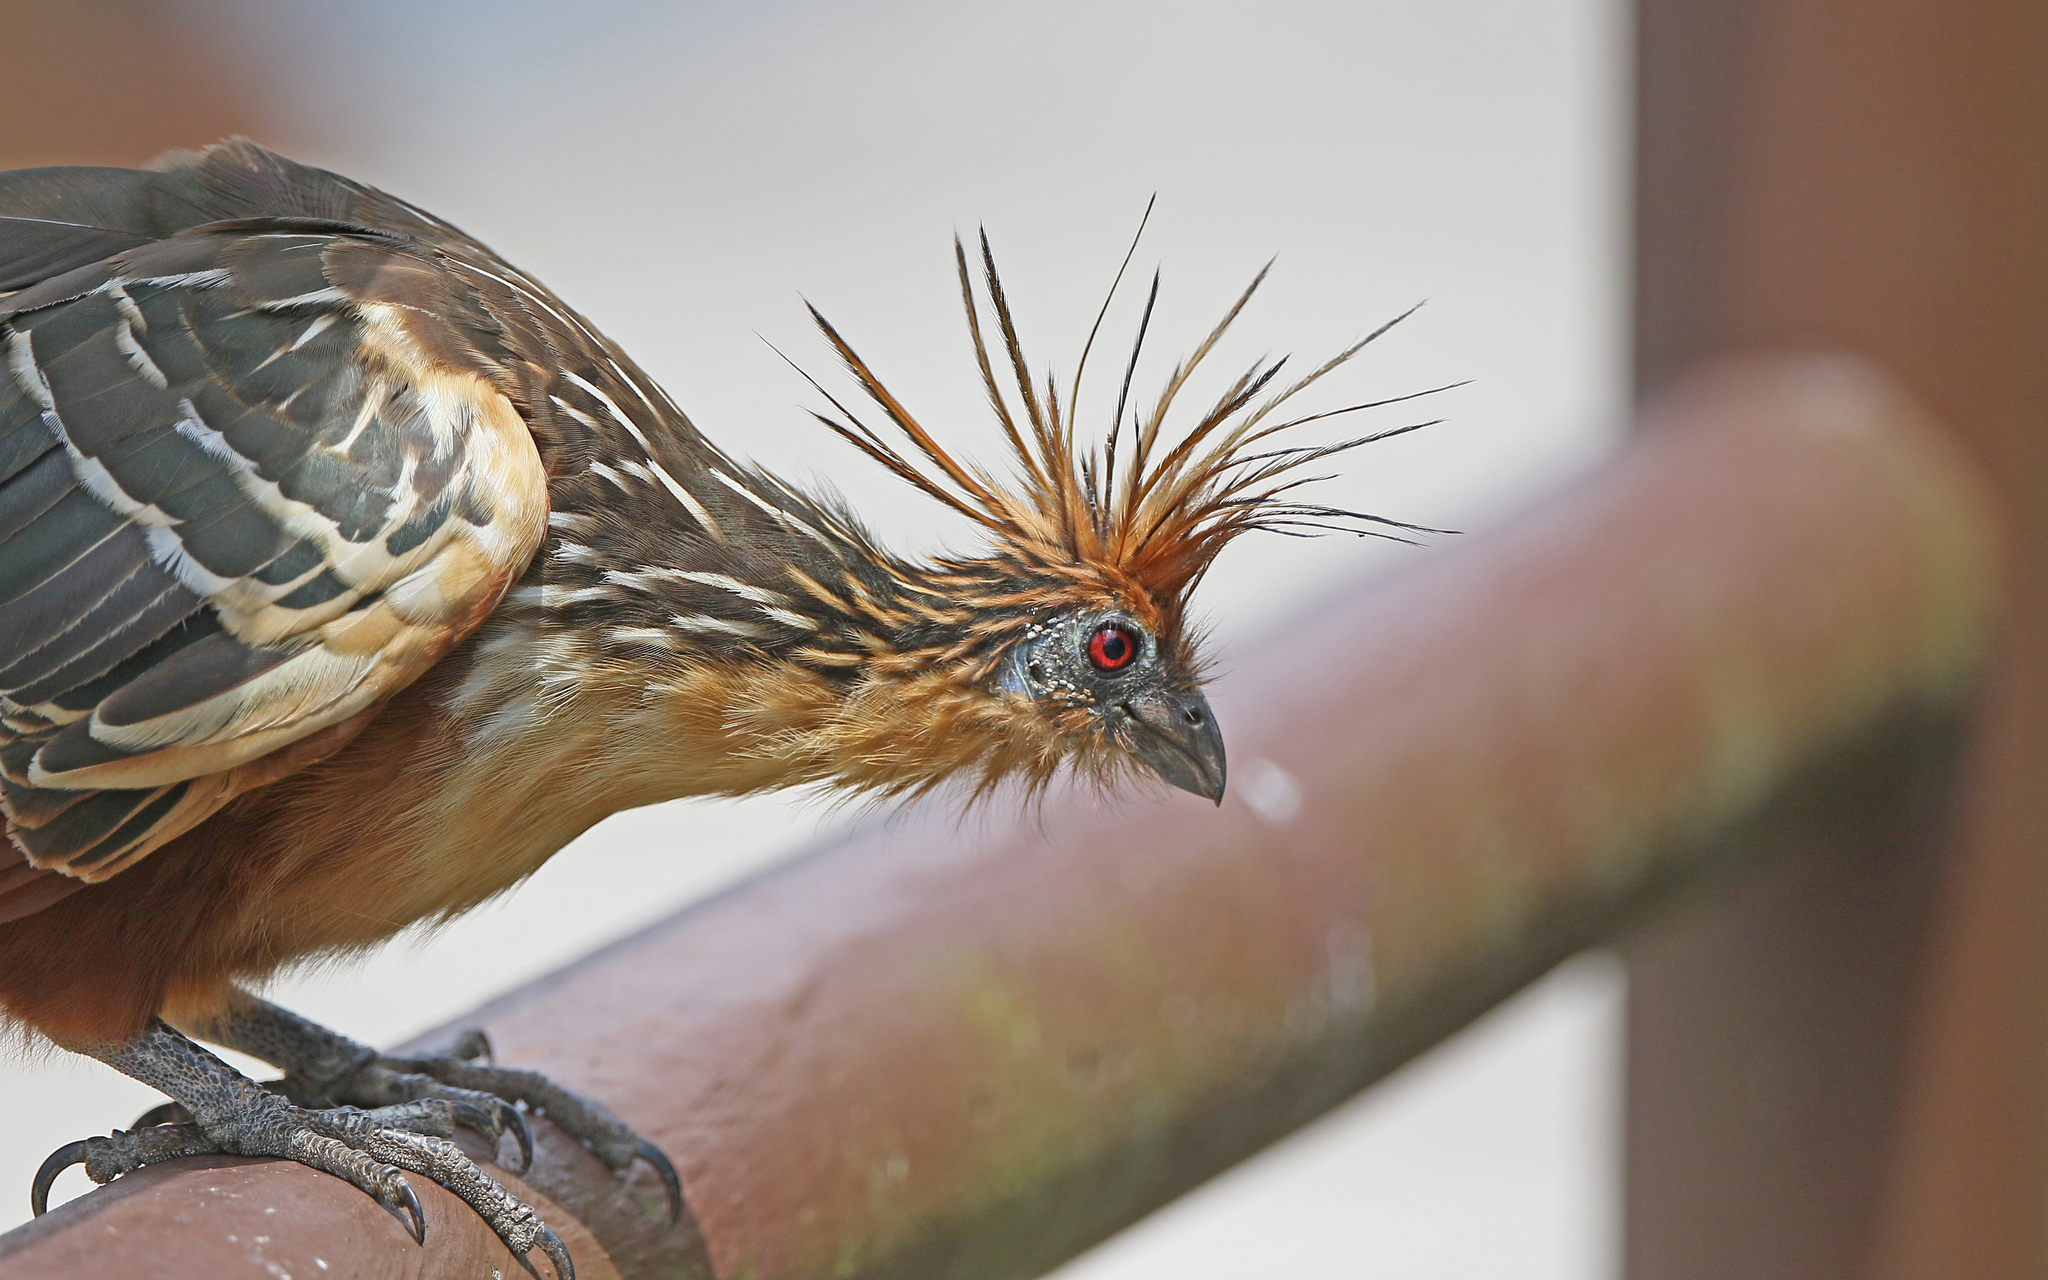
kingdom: Animalia
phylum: Chordata
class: Aves
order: Opisthocomiformes
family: Opisthocomidae
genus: Opisthocomus
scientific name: Opisthocomus hoazin
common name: Hoatzin
